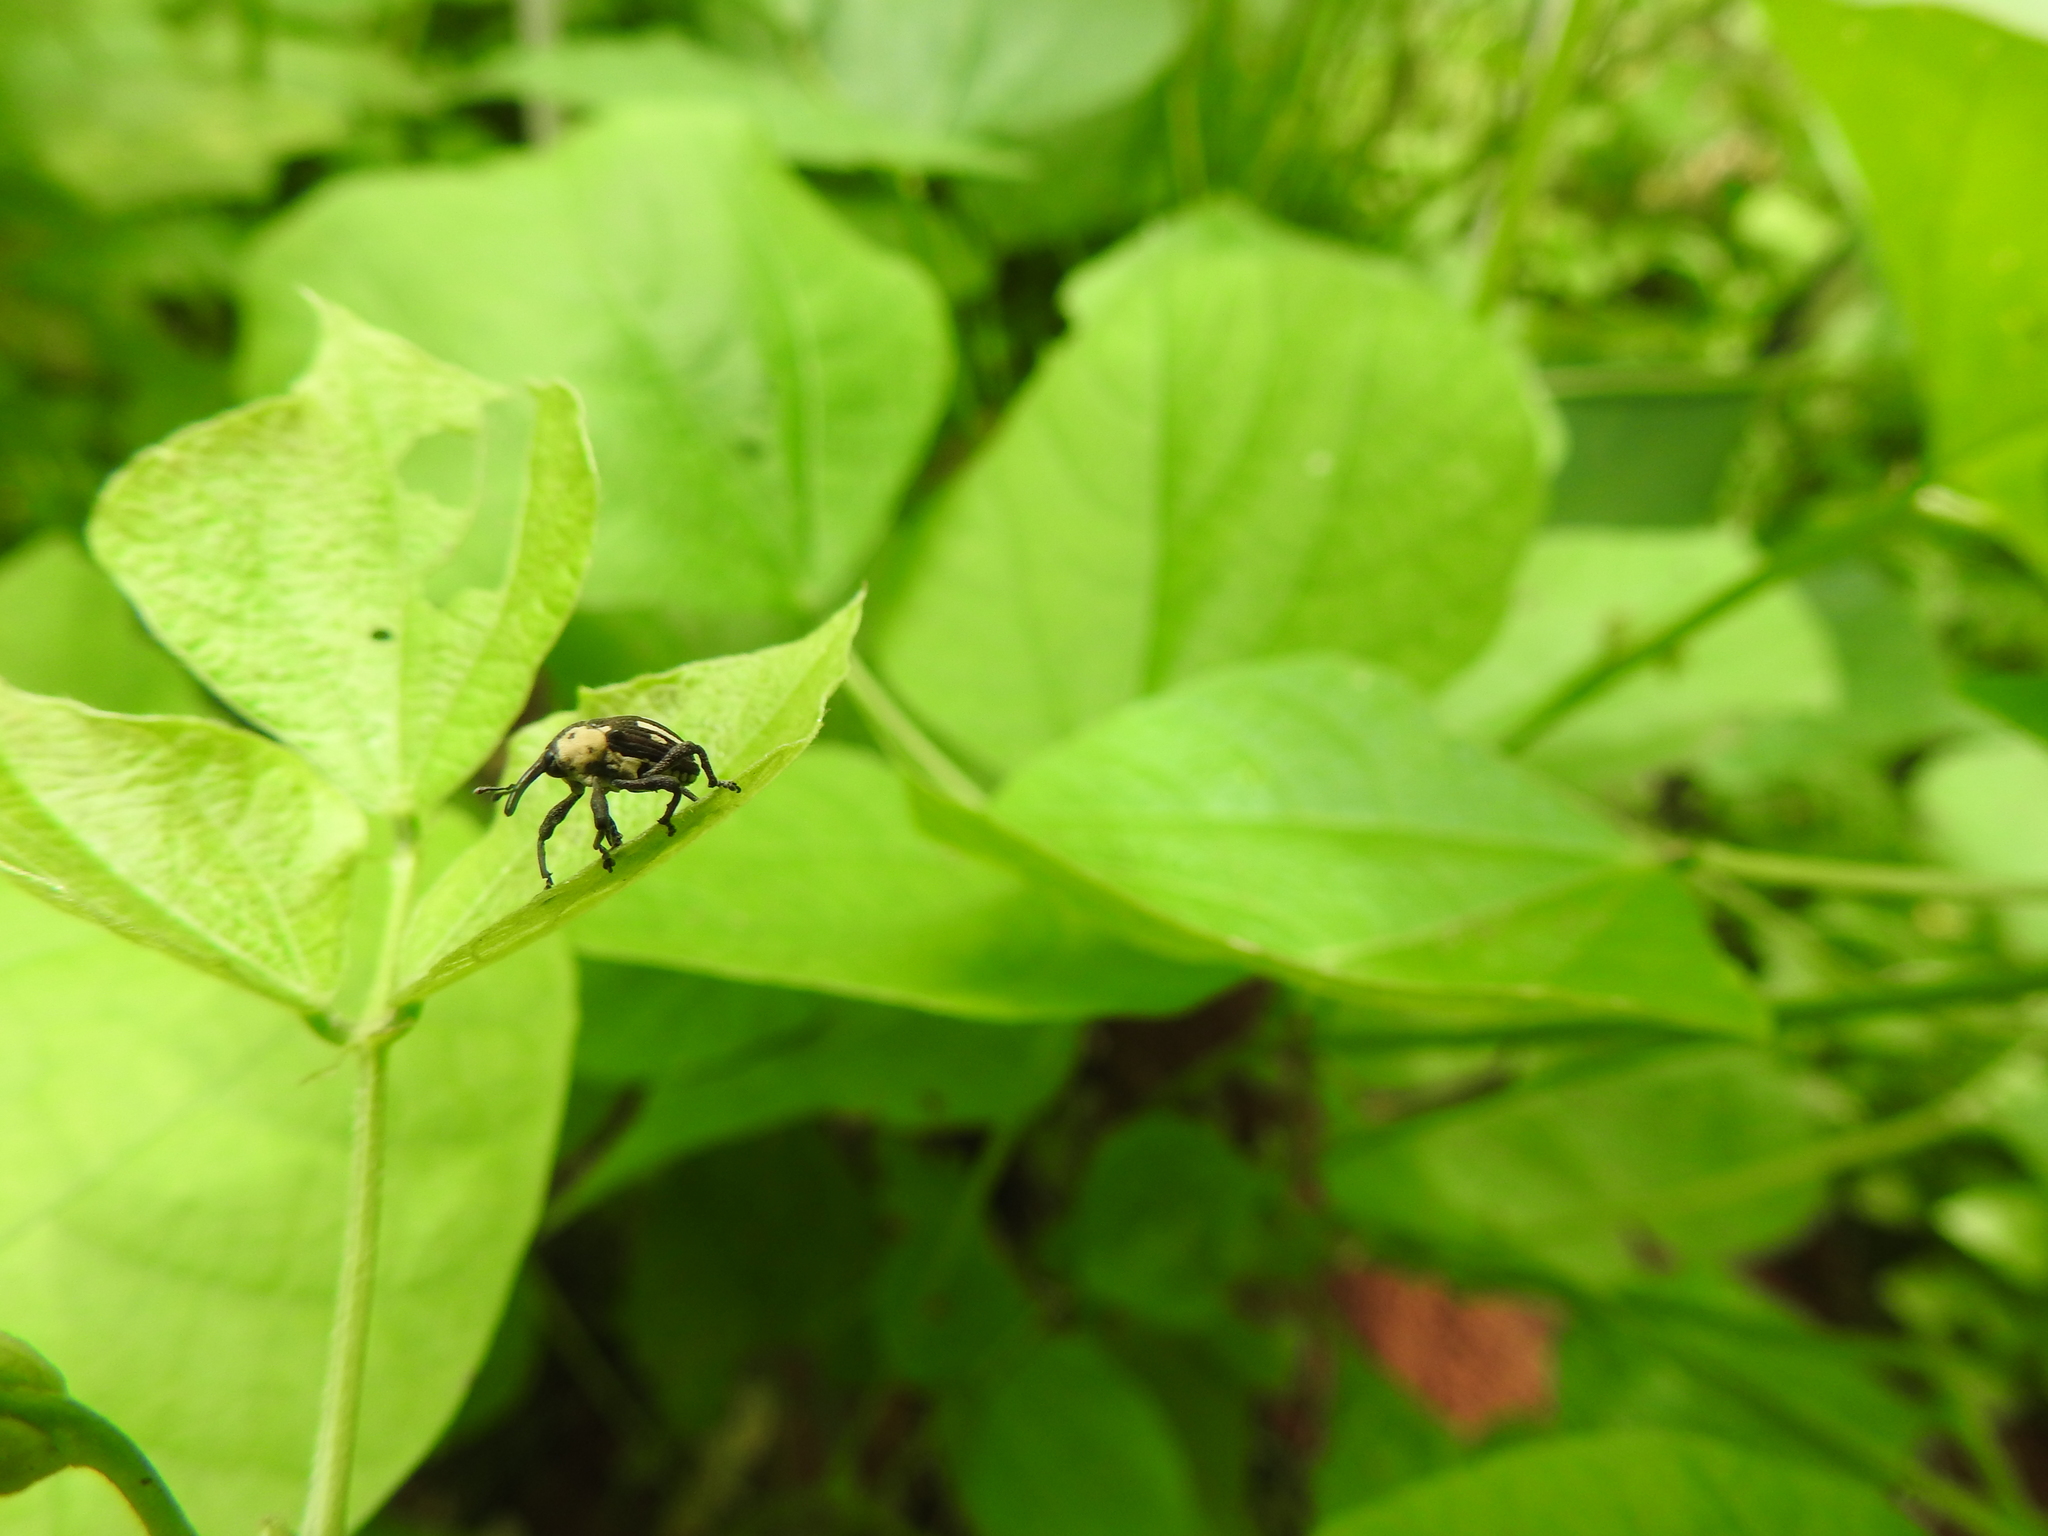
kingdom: Animalia
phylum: Arthropoda
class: Insecta
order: Coleoptera
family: Curculionidae
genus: Sternuchopsis
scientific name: Sternuchopsis
